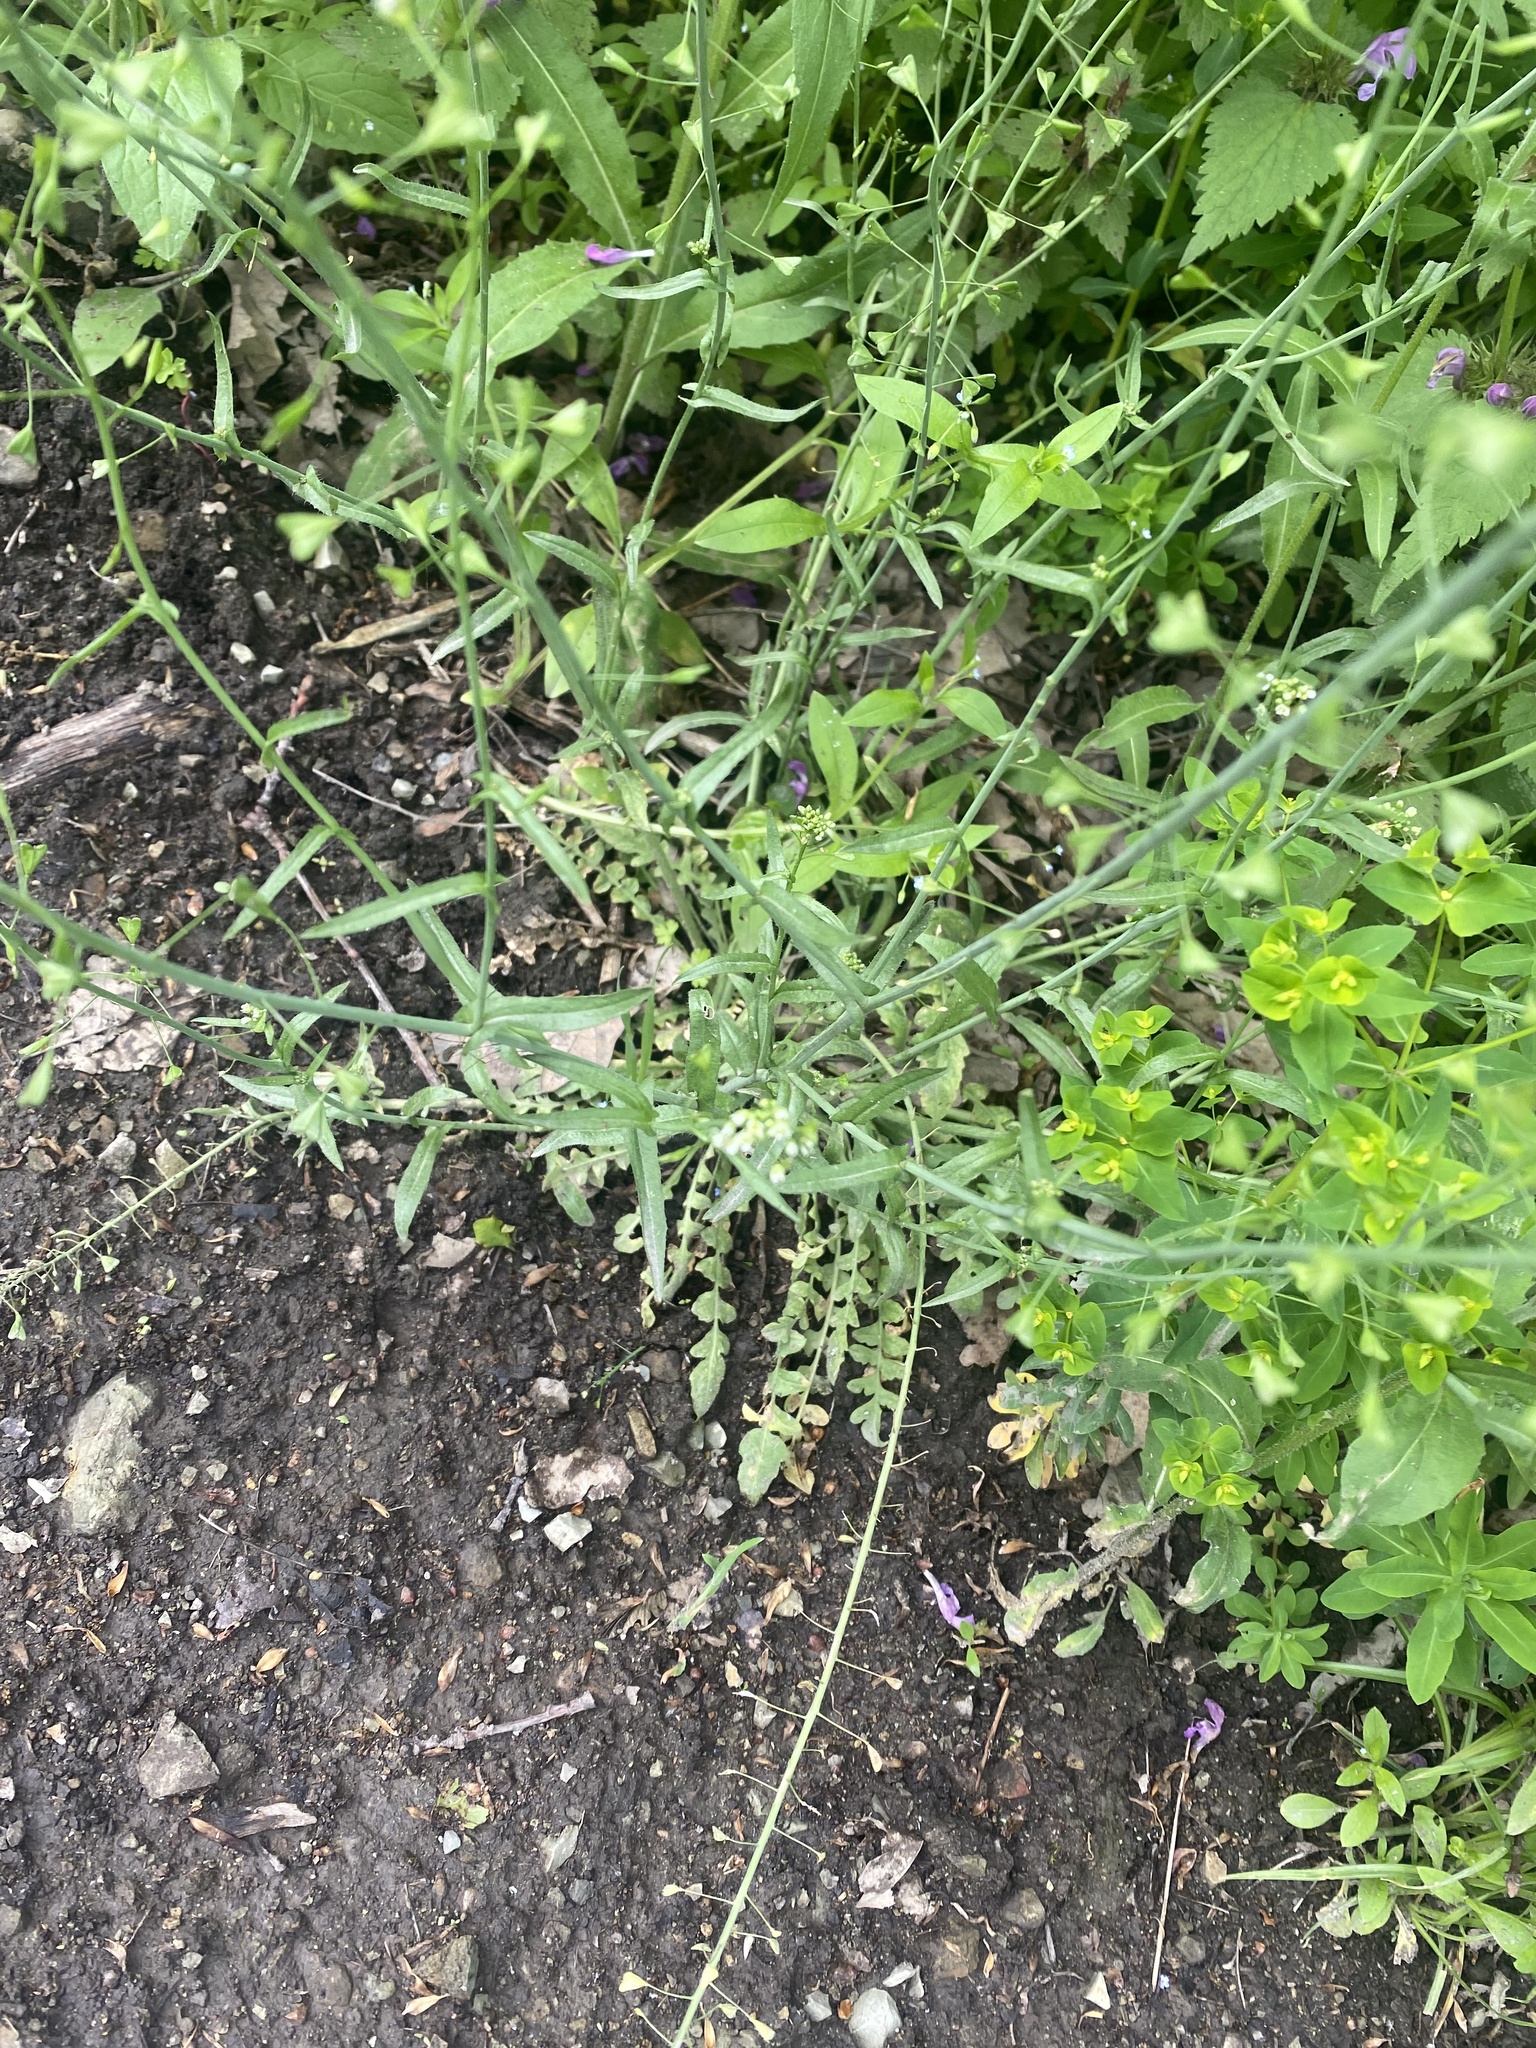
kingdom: Plantae
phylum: Tracheophyta
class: Magnoliopsida
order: Brassicales
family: Brassicaceae
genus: Capsella
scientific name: Capsella bursa-pastoris
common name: Shepherd's purse
